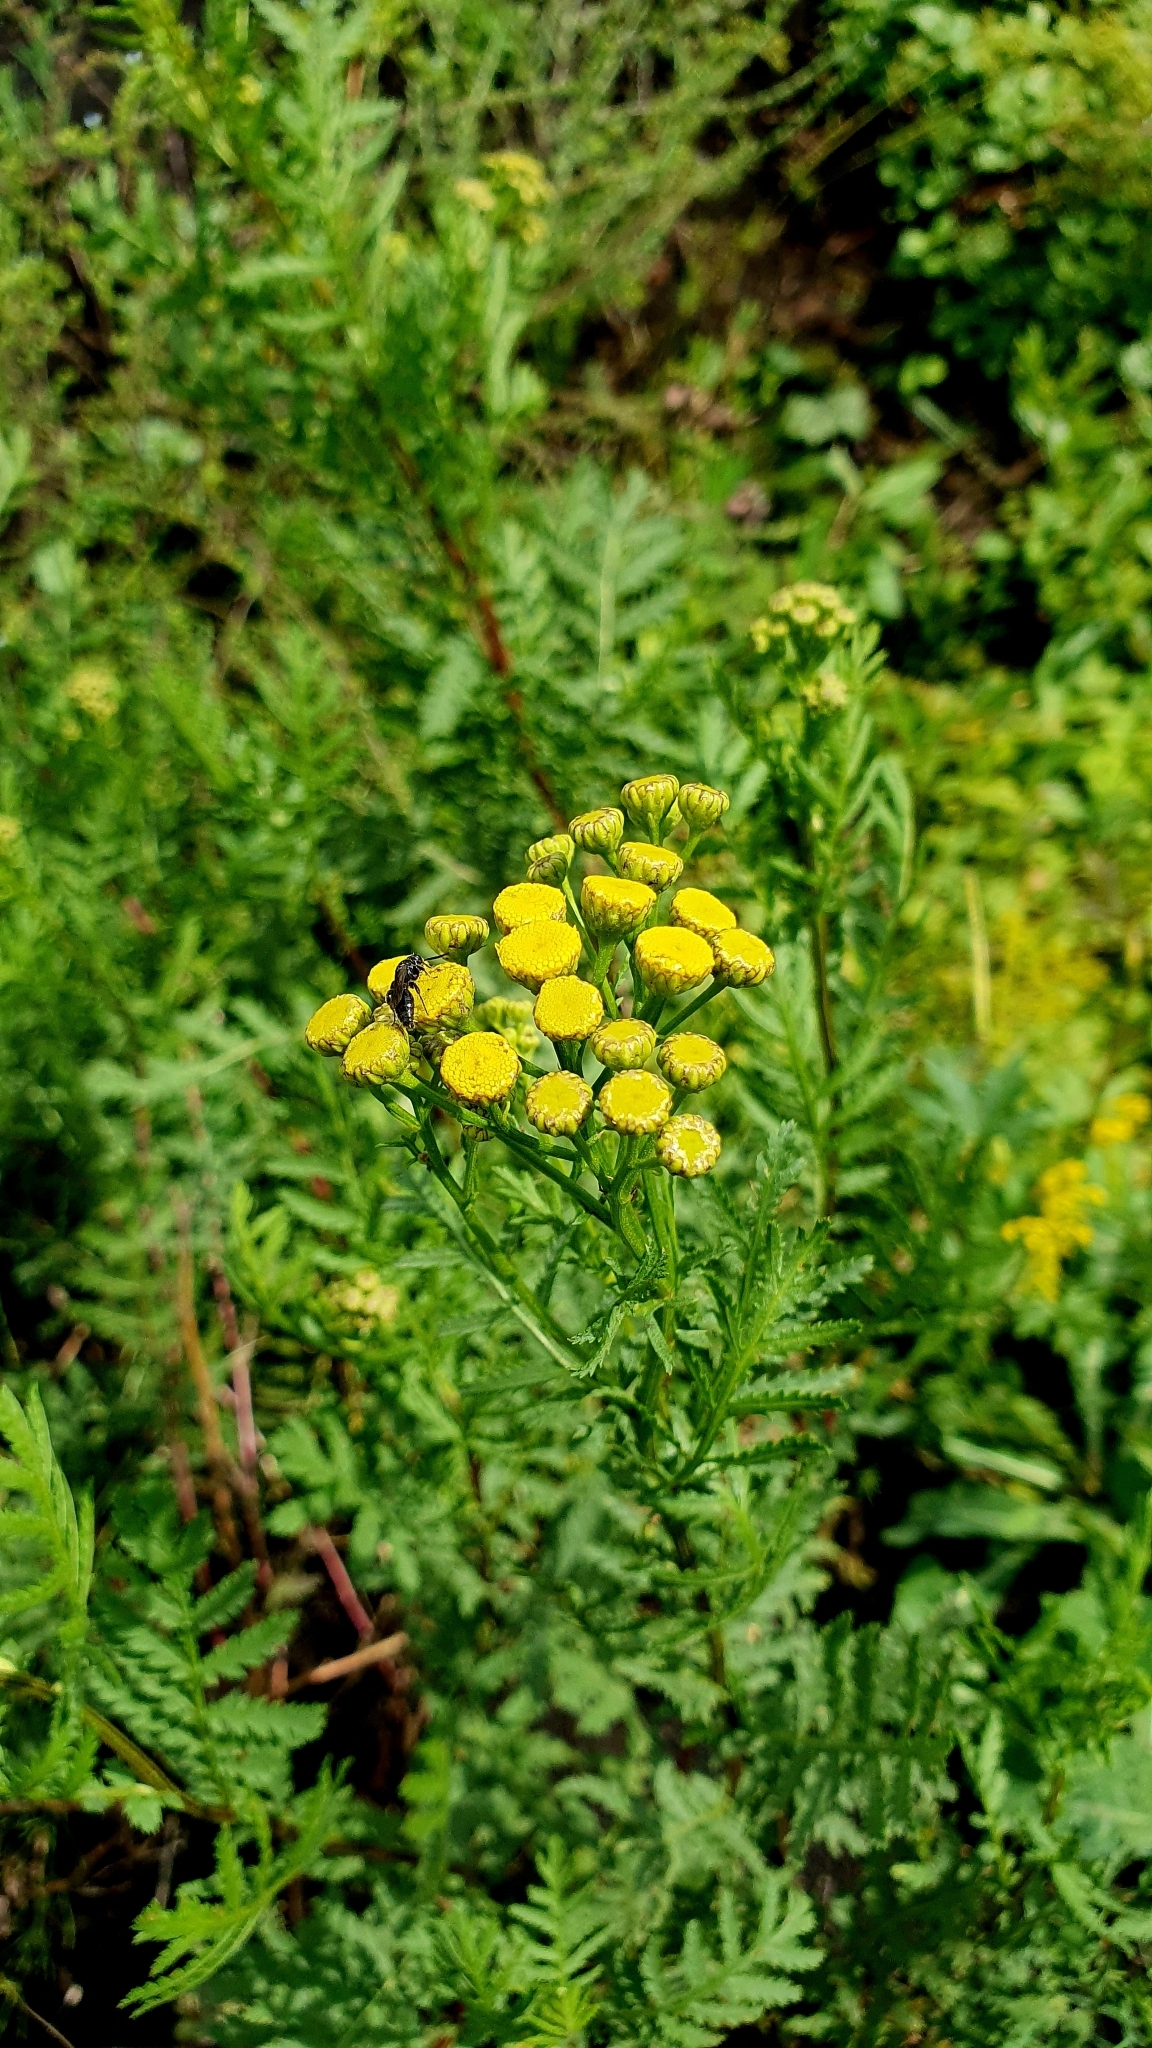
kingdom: Plantae
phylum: Tracheophyta
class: Magnoliopsida
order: Asterales
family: Asteraceae
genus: Tanacetum
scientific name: Tanacetum vulgare
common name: Common tansy
